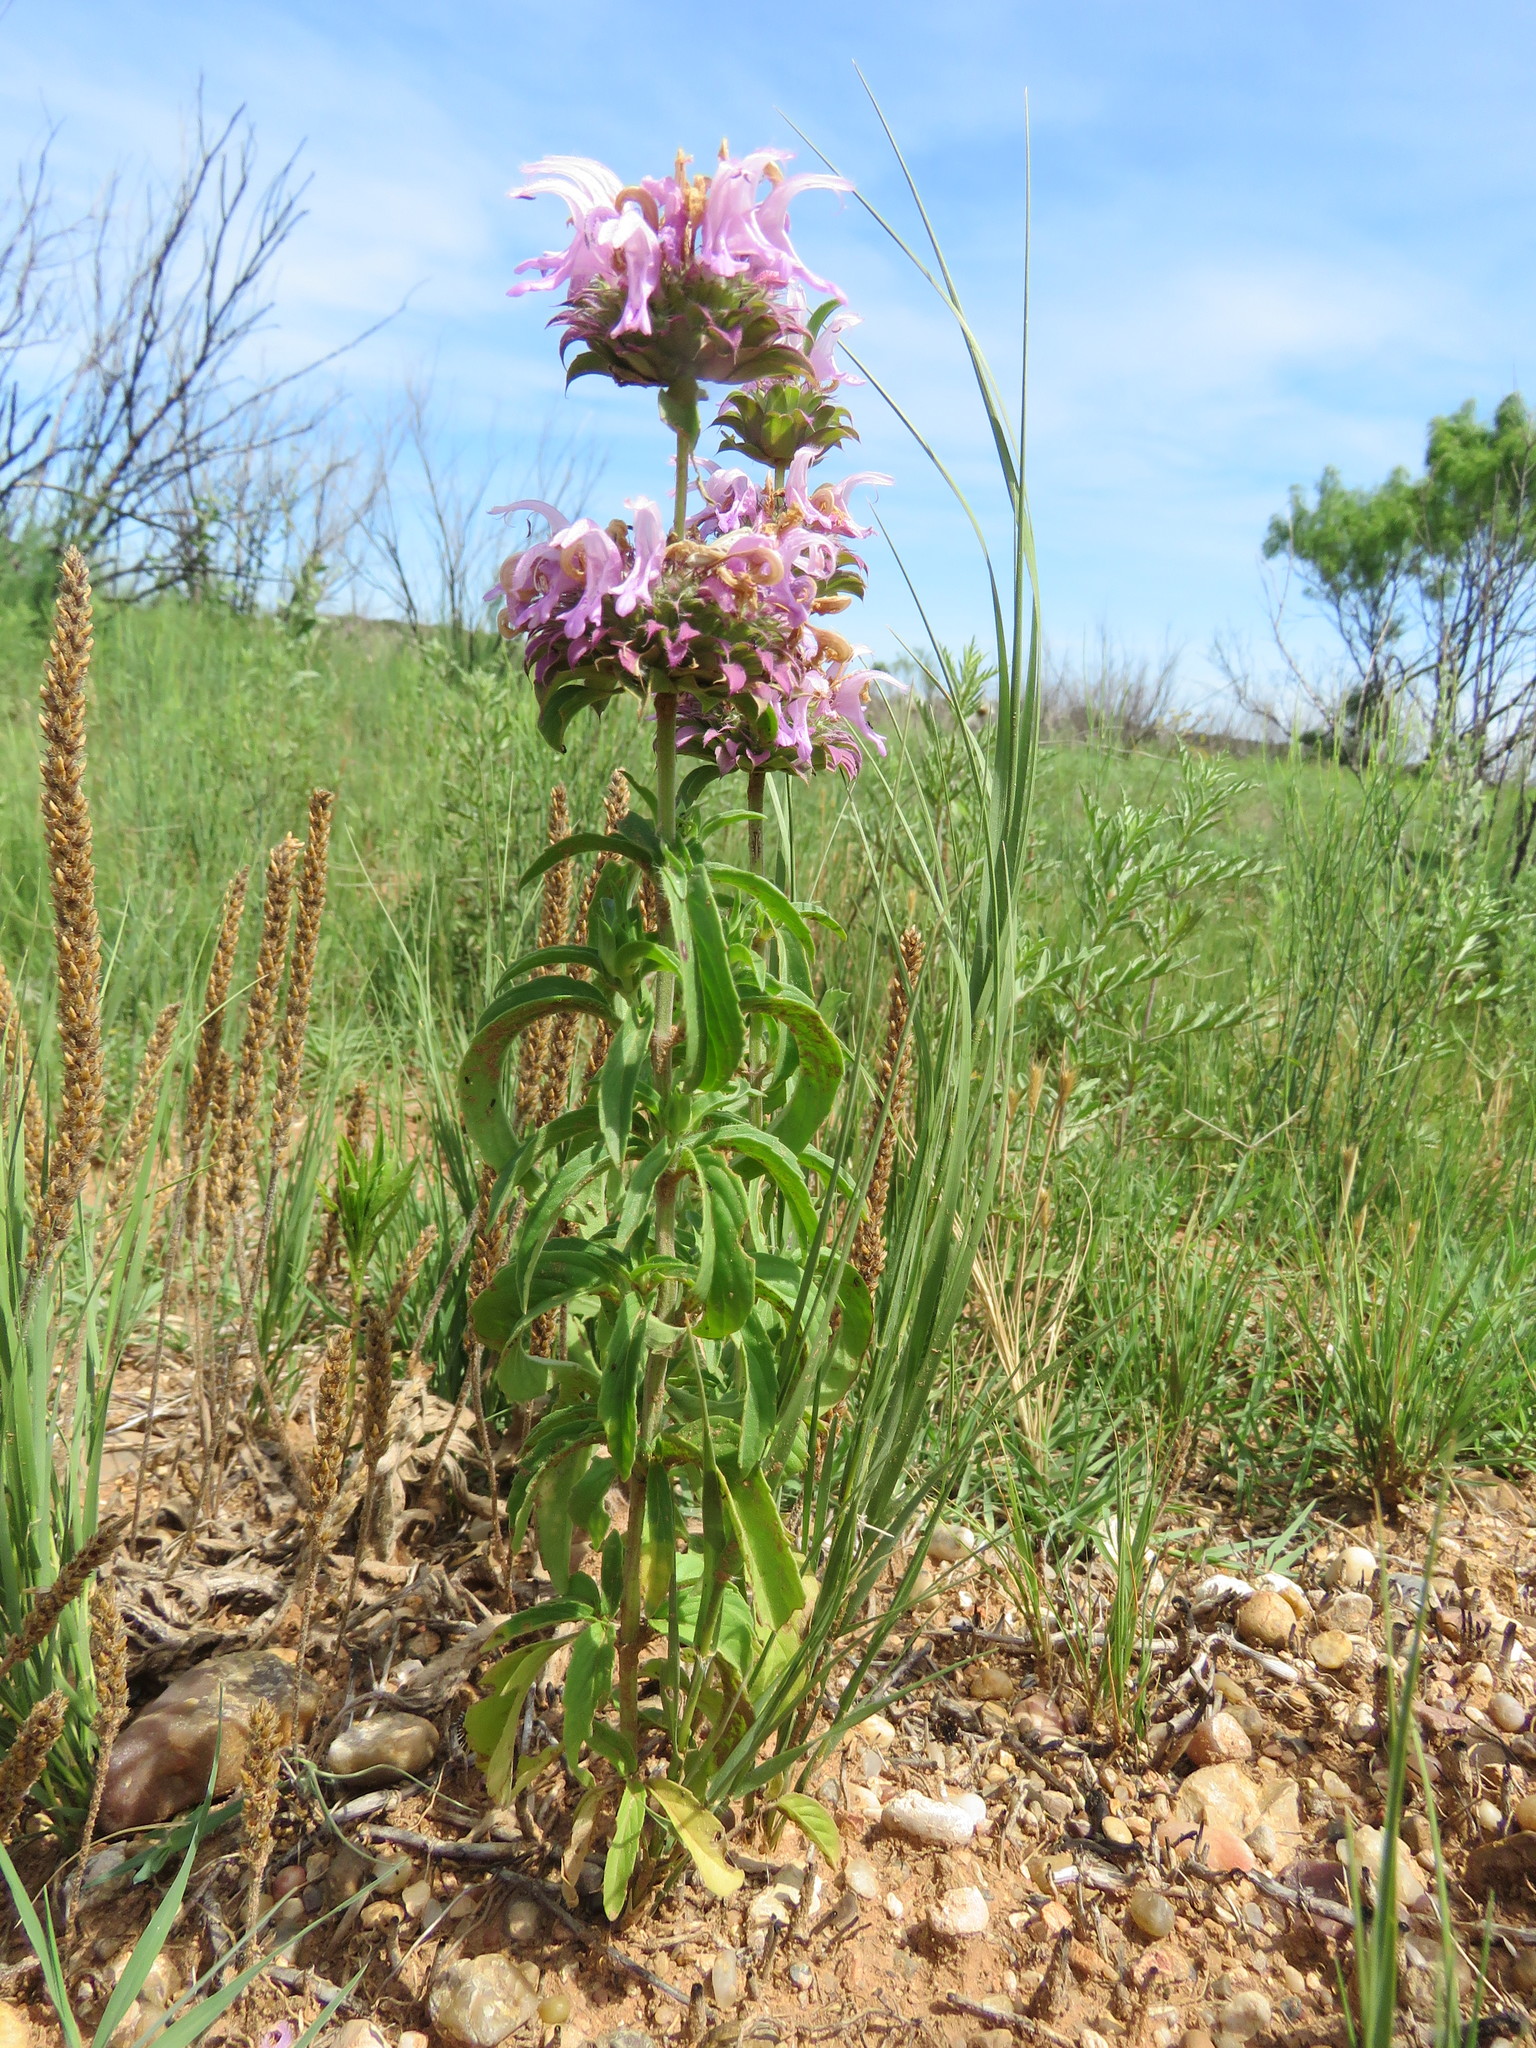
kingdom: Plantae
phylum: Tracheophyta
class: Magnoliopsida
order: Lamiales
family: Lamiaceae
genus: Monarda
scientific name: Monarda citriodora
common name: Lemon beebalm
